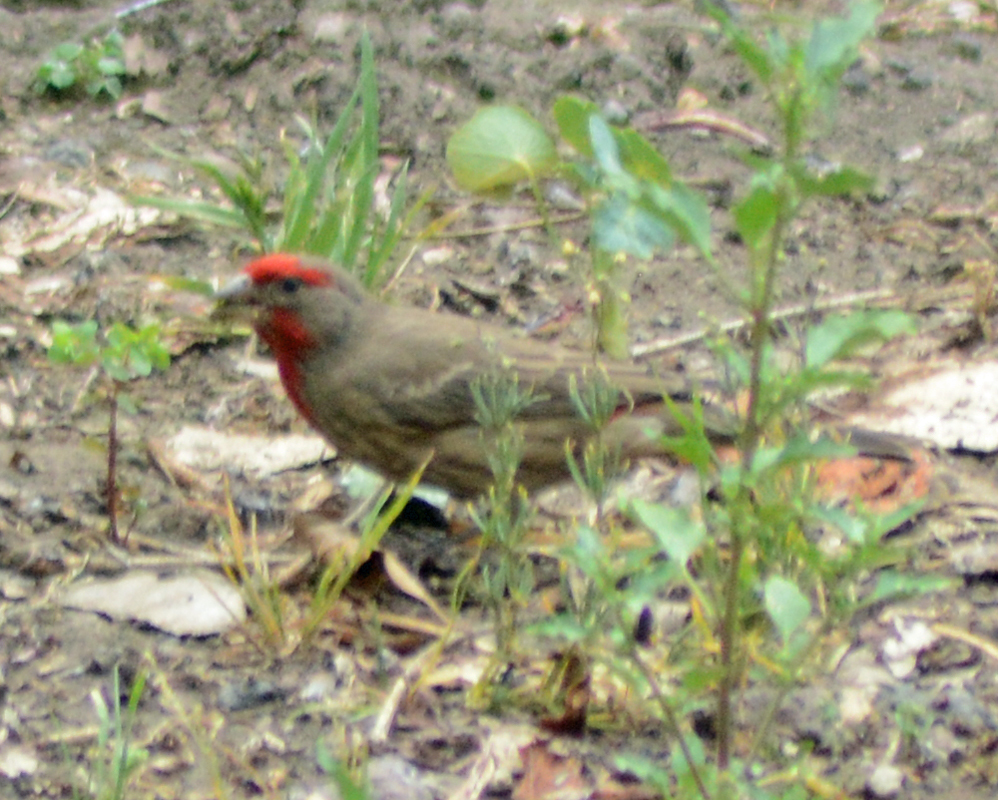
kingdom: Animalia
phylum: Chordata
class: Aves
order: Passeriformes
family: Fringillidae
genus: Haemorhous
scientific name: Haemorhous mexicanus
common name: House finch
